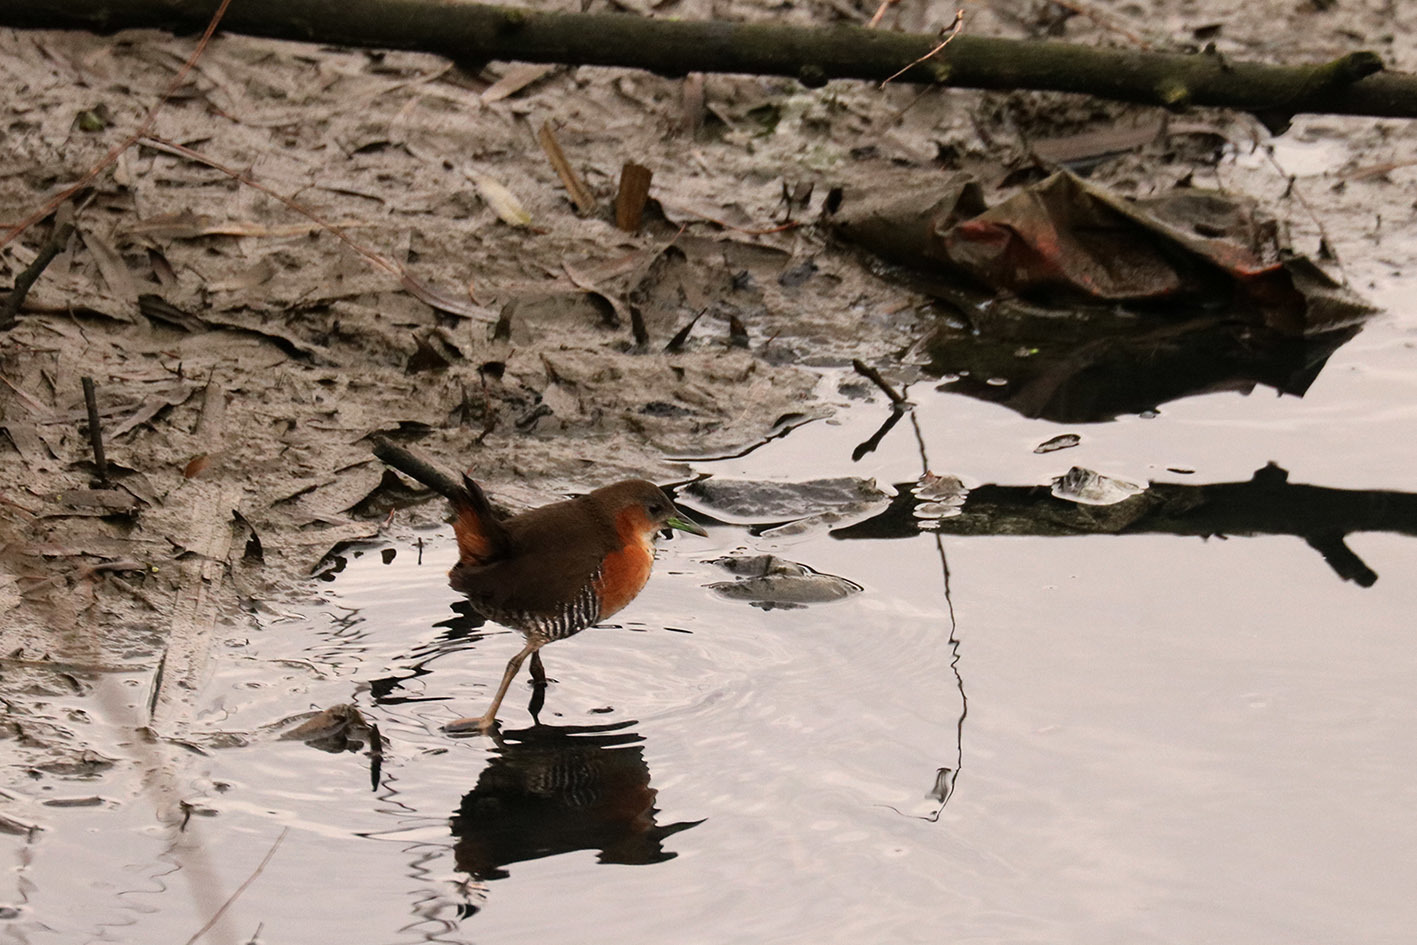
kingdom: Animalia
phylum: Chordata
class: Aves
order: Gruiformes
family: Rallidae
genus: Laterallus
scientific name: Laterallus melanophaius
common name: Rufous-sided crake
